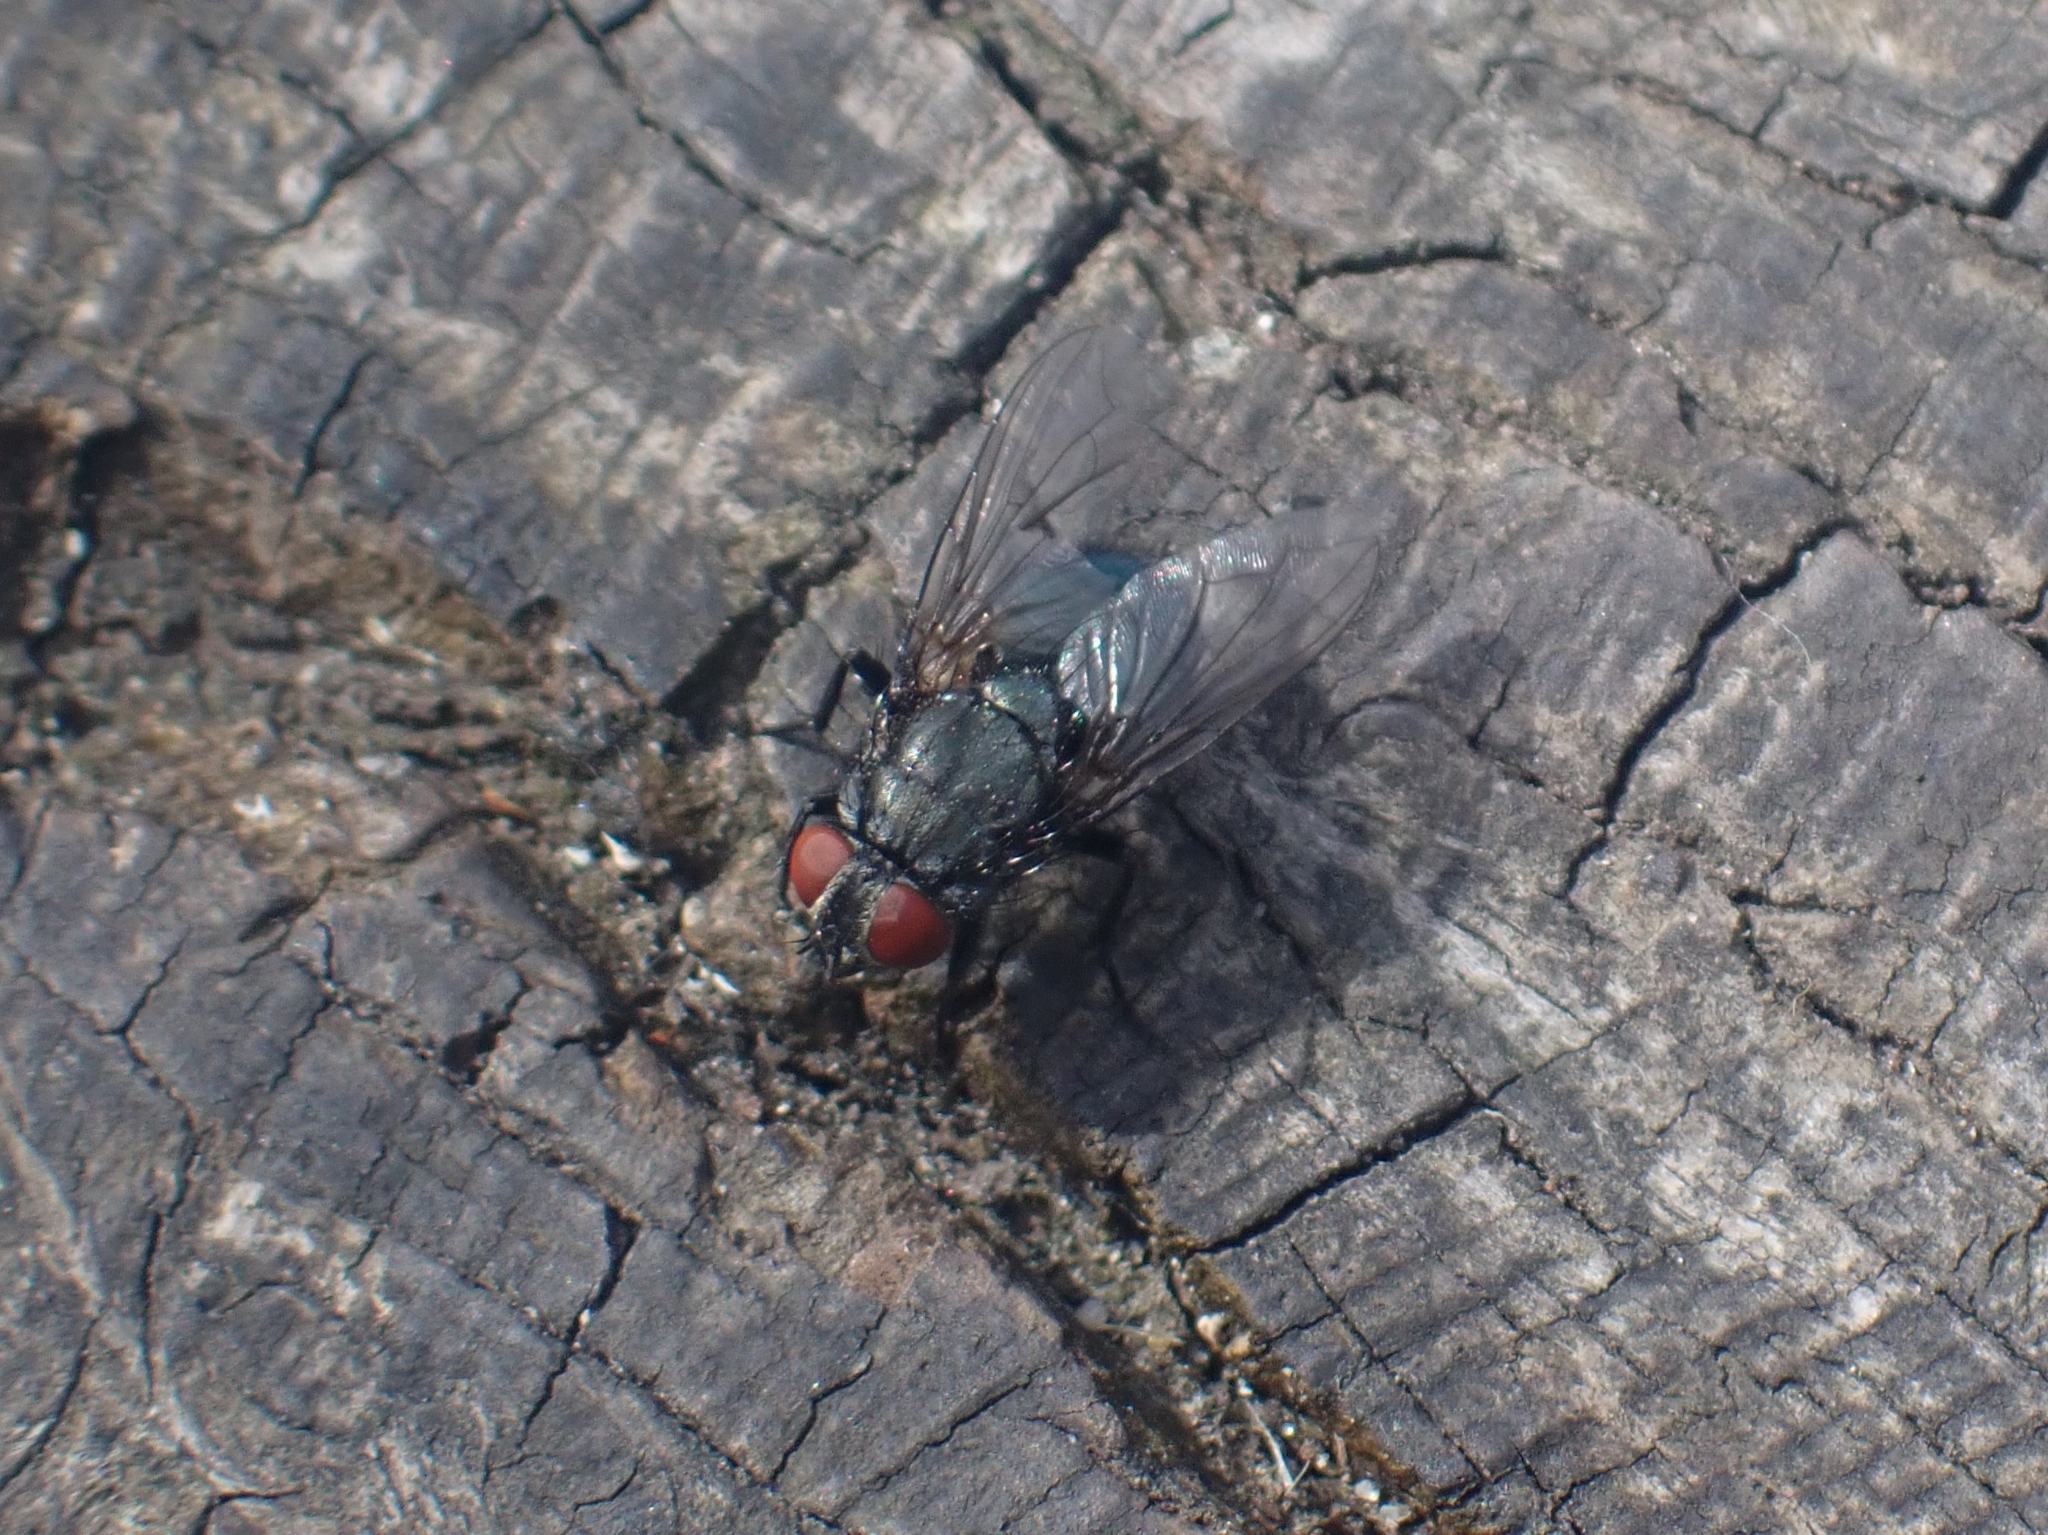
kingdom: Animalia
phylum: Arthropoda
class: Insecta
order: Diptera
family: Calliphoridae
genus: Protocalliphora
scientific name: Protocalliphora azurea
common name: Bird blowfly
